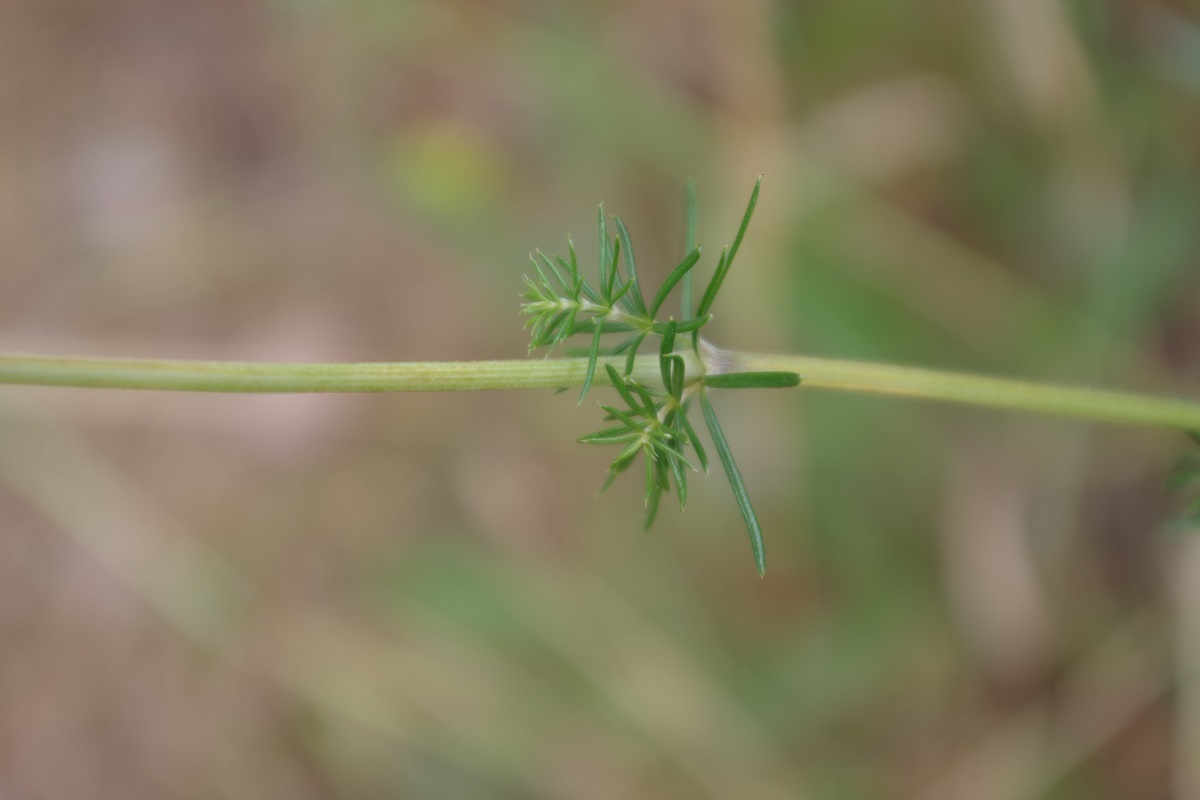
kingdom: Plantae
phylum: Tracheophyta
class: Magnoliopsida
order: Gentianales
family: Rubiaceae
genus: Galium
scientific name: Galium verum
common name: Lady's bedstraw
